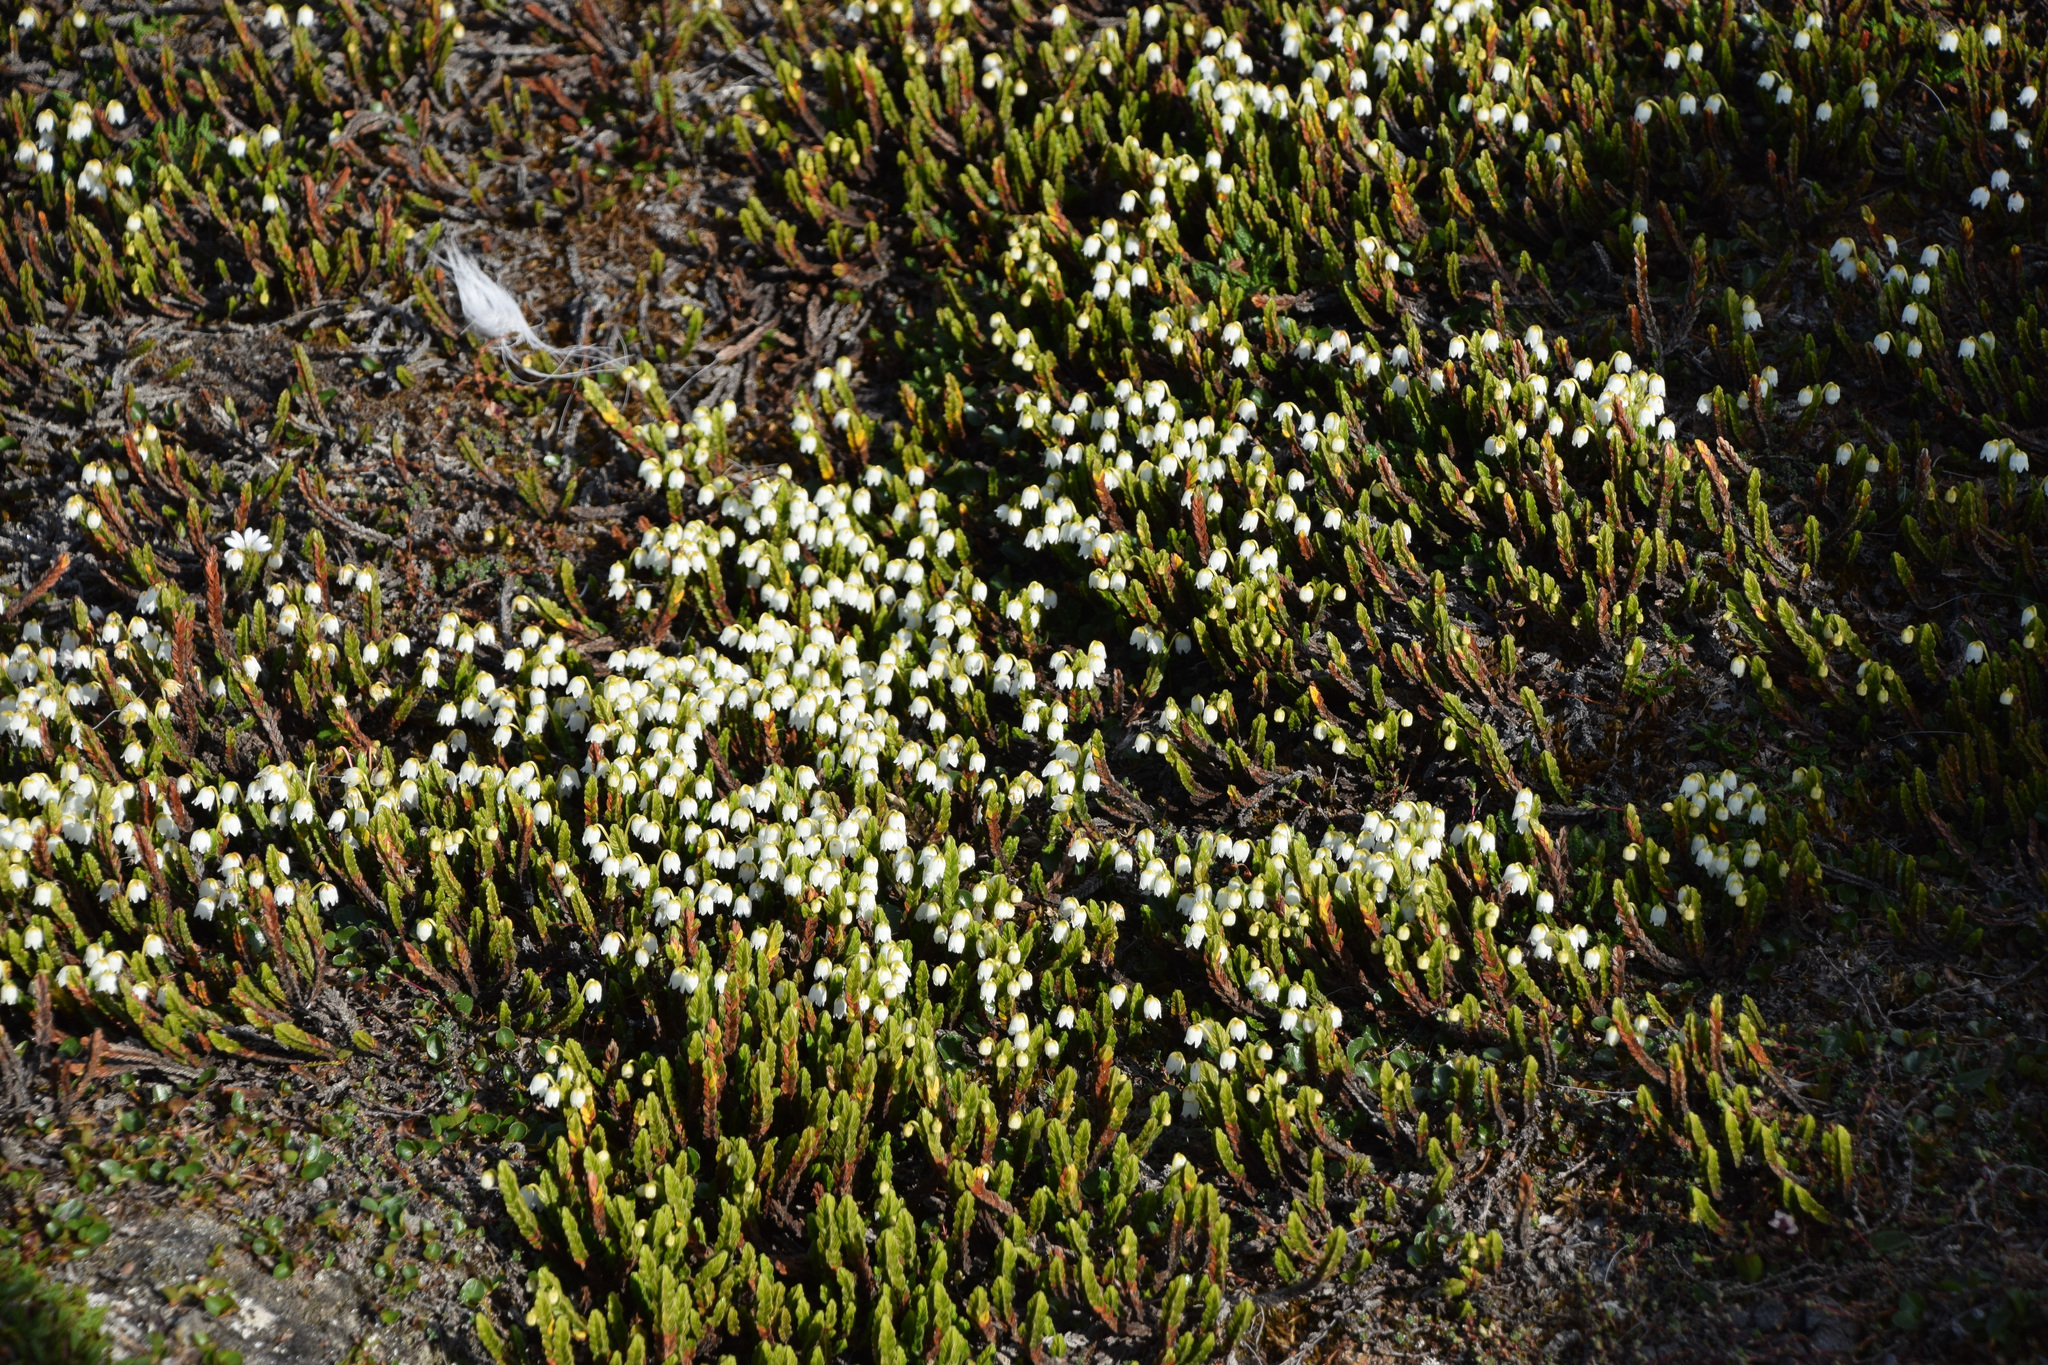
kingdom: Plantae
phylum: Tracheophyta
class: Magnoliopsida
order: Ericales
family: Ericaceae
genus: Cassiope
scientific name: Cassiope tetragona
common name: Arctic bell heather
